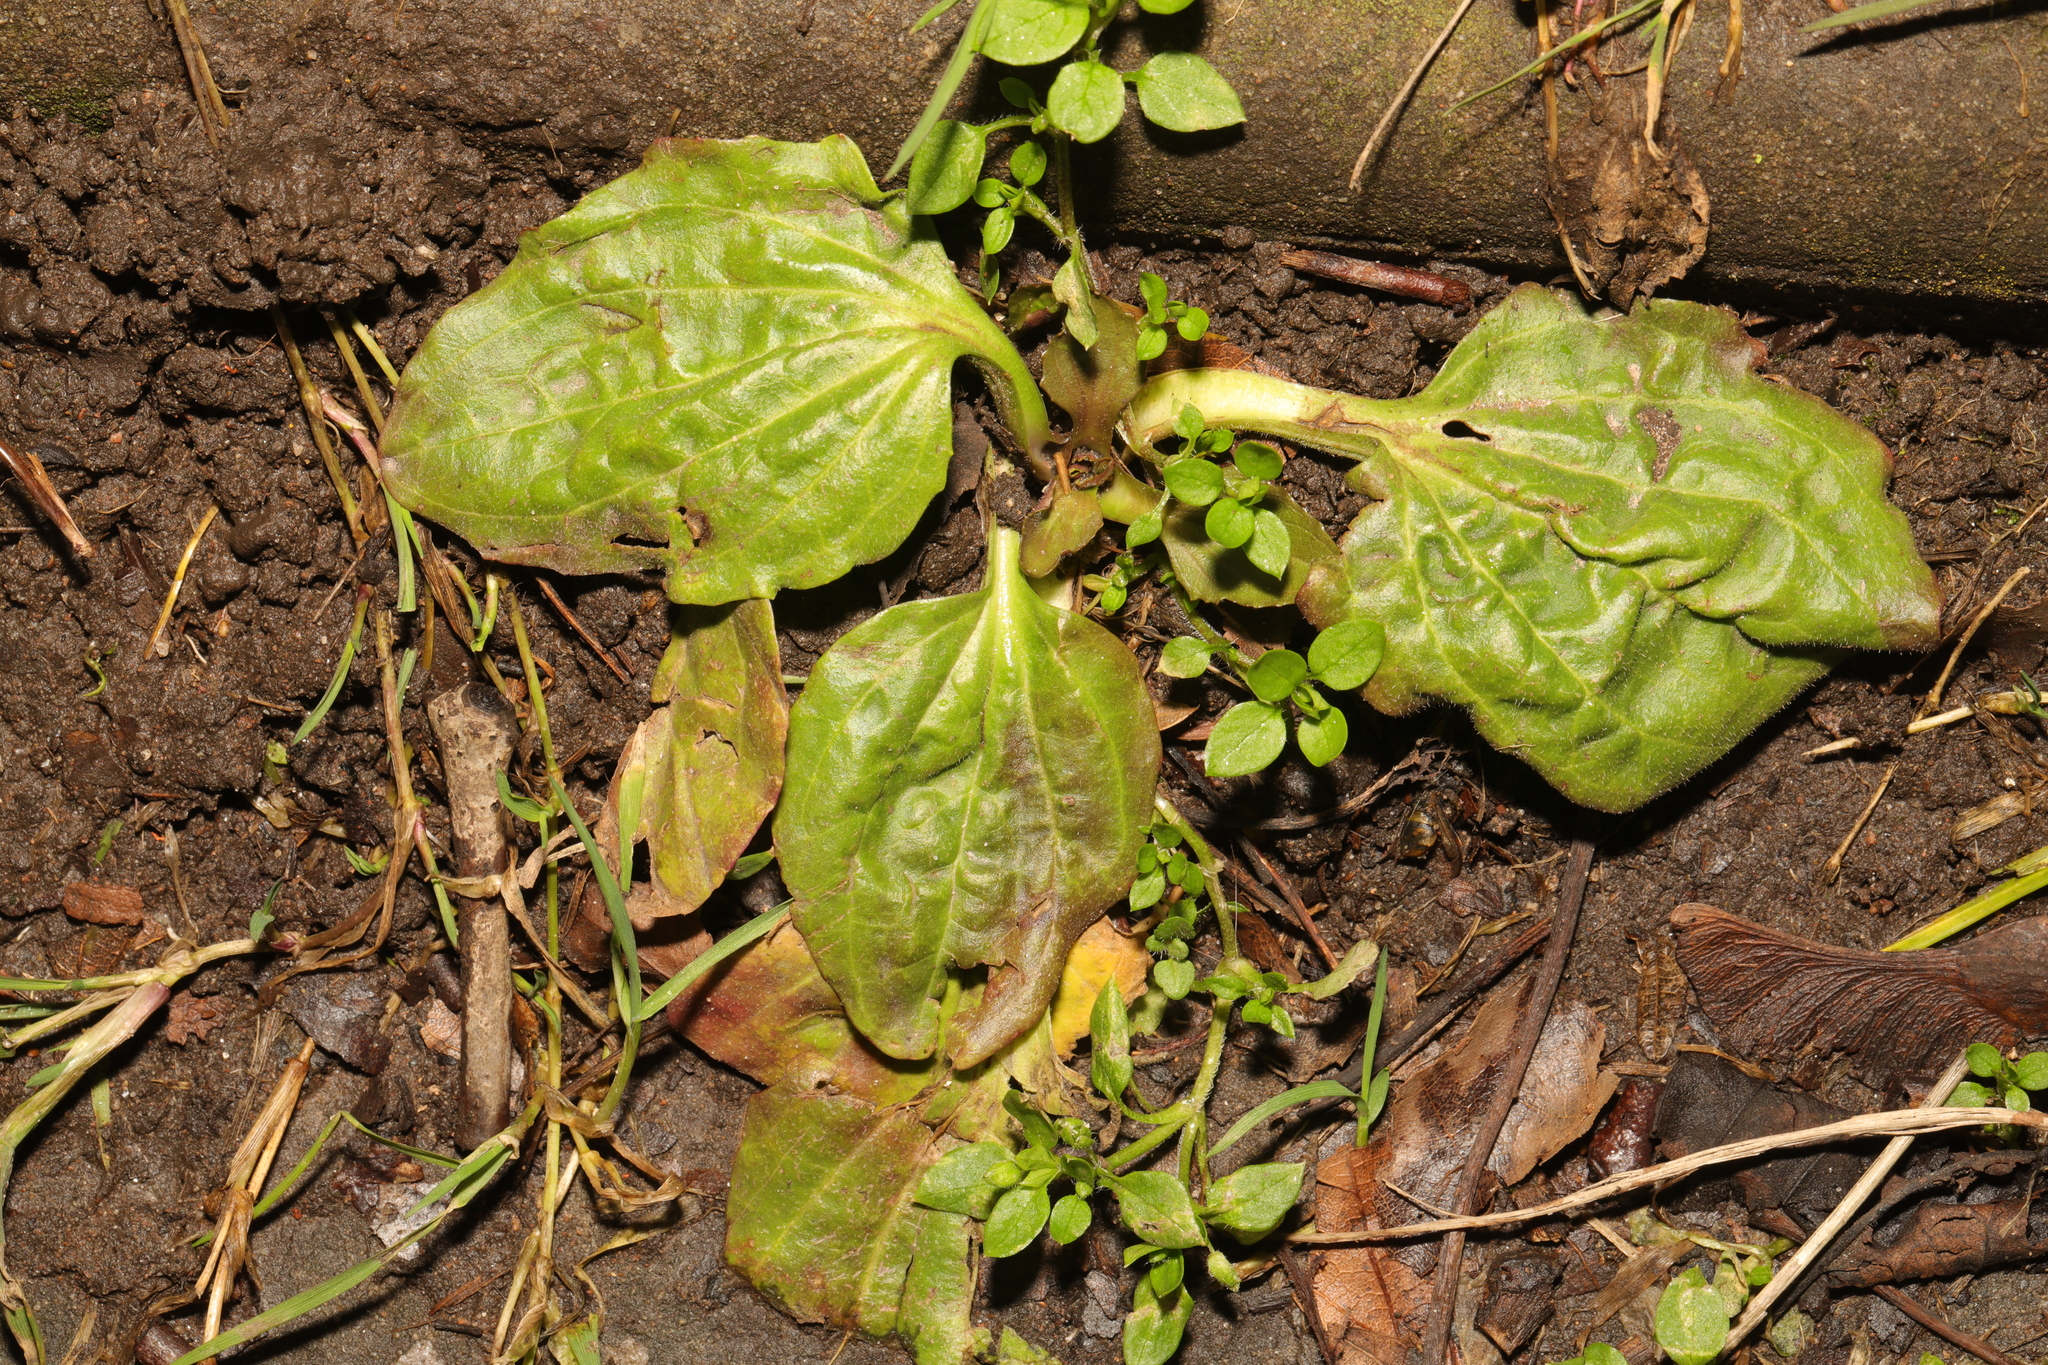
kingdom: Plantae
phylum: Tracheophyta
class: Magnoliopsida
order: Lamiales
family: Plantaginaceae
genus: Plantago
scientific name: Plantago major
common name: Common plantain
